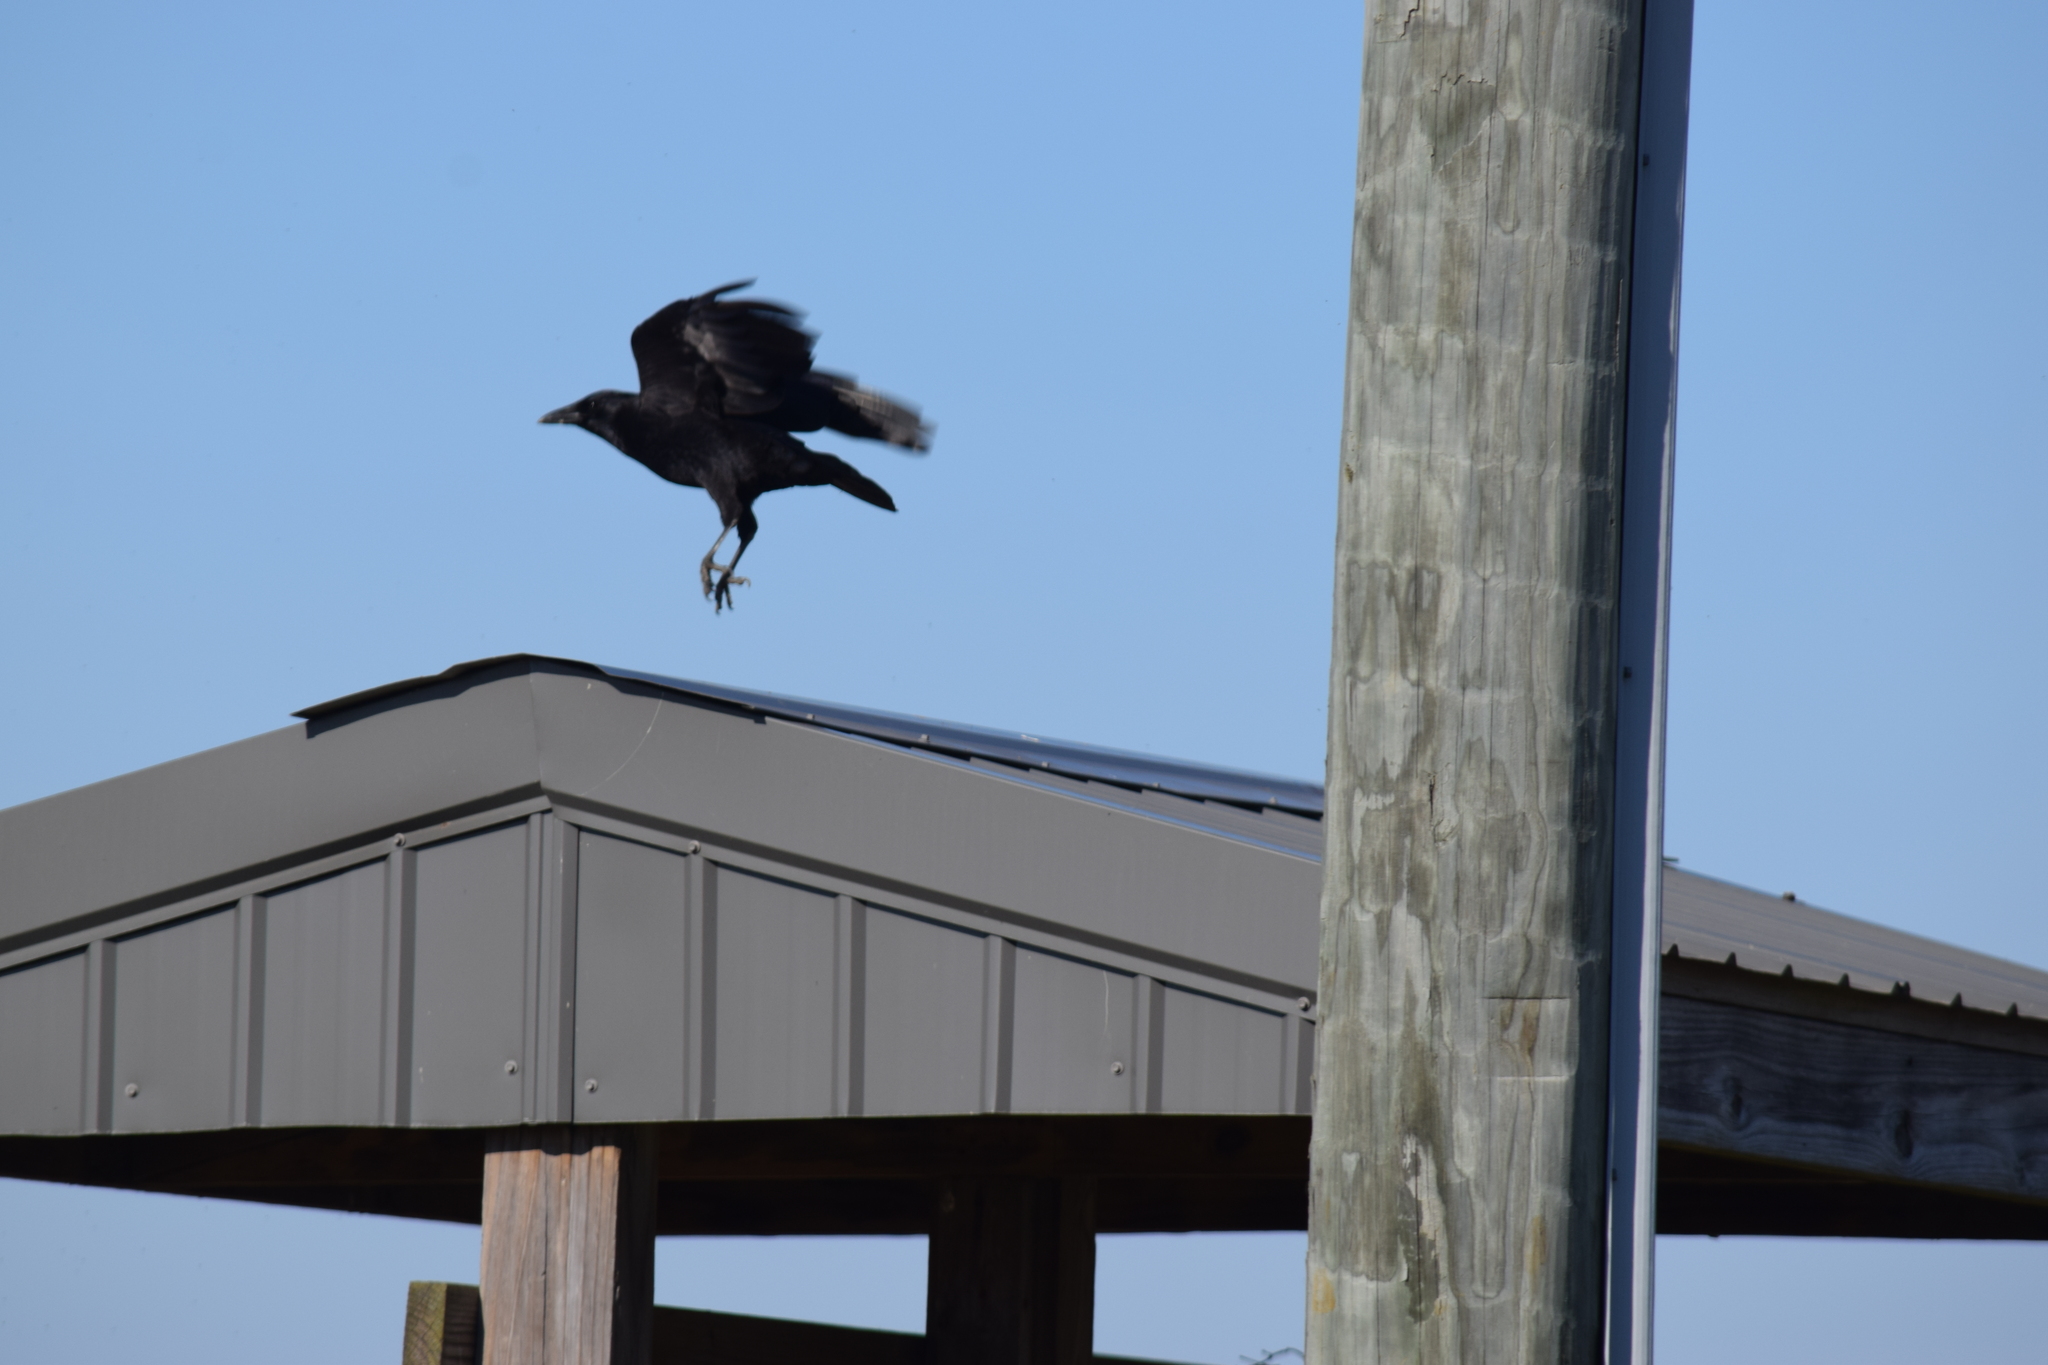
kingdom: Animalia
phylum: Chordata
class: Aves
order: Passeriformes
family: Corvidae
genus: Corvus
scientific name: Corvus
